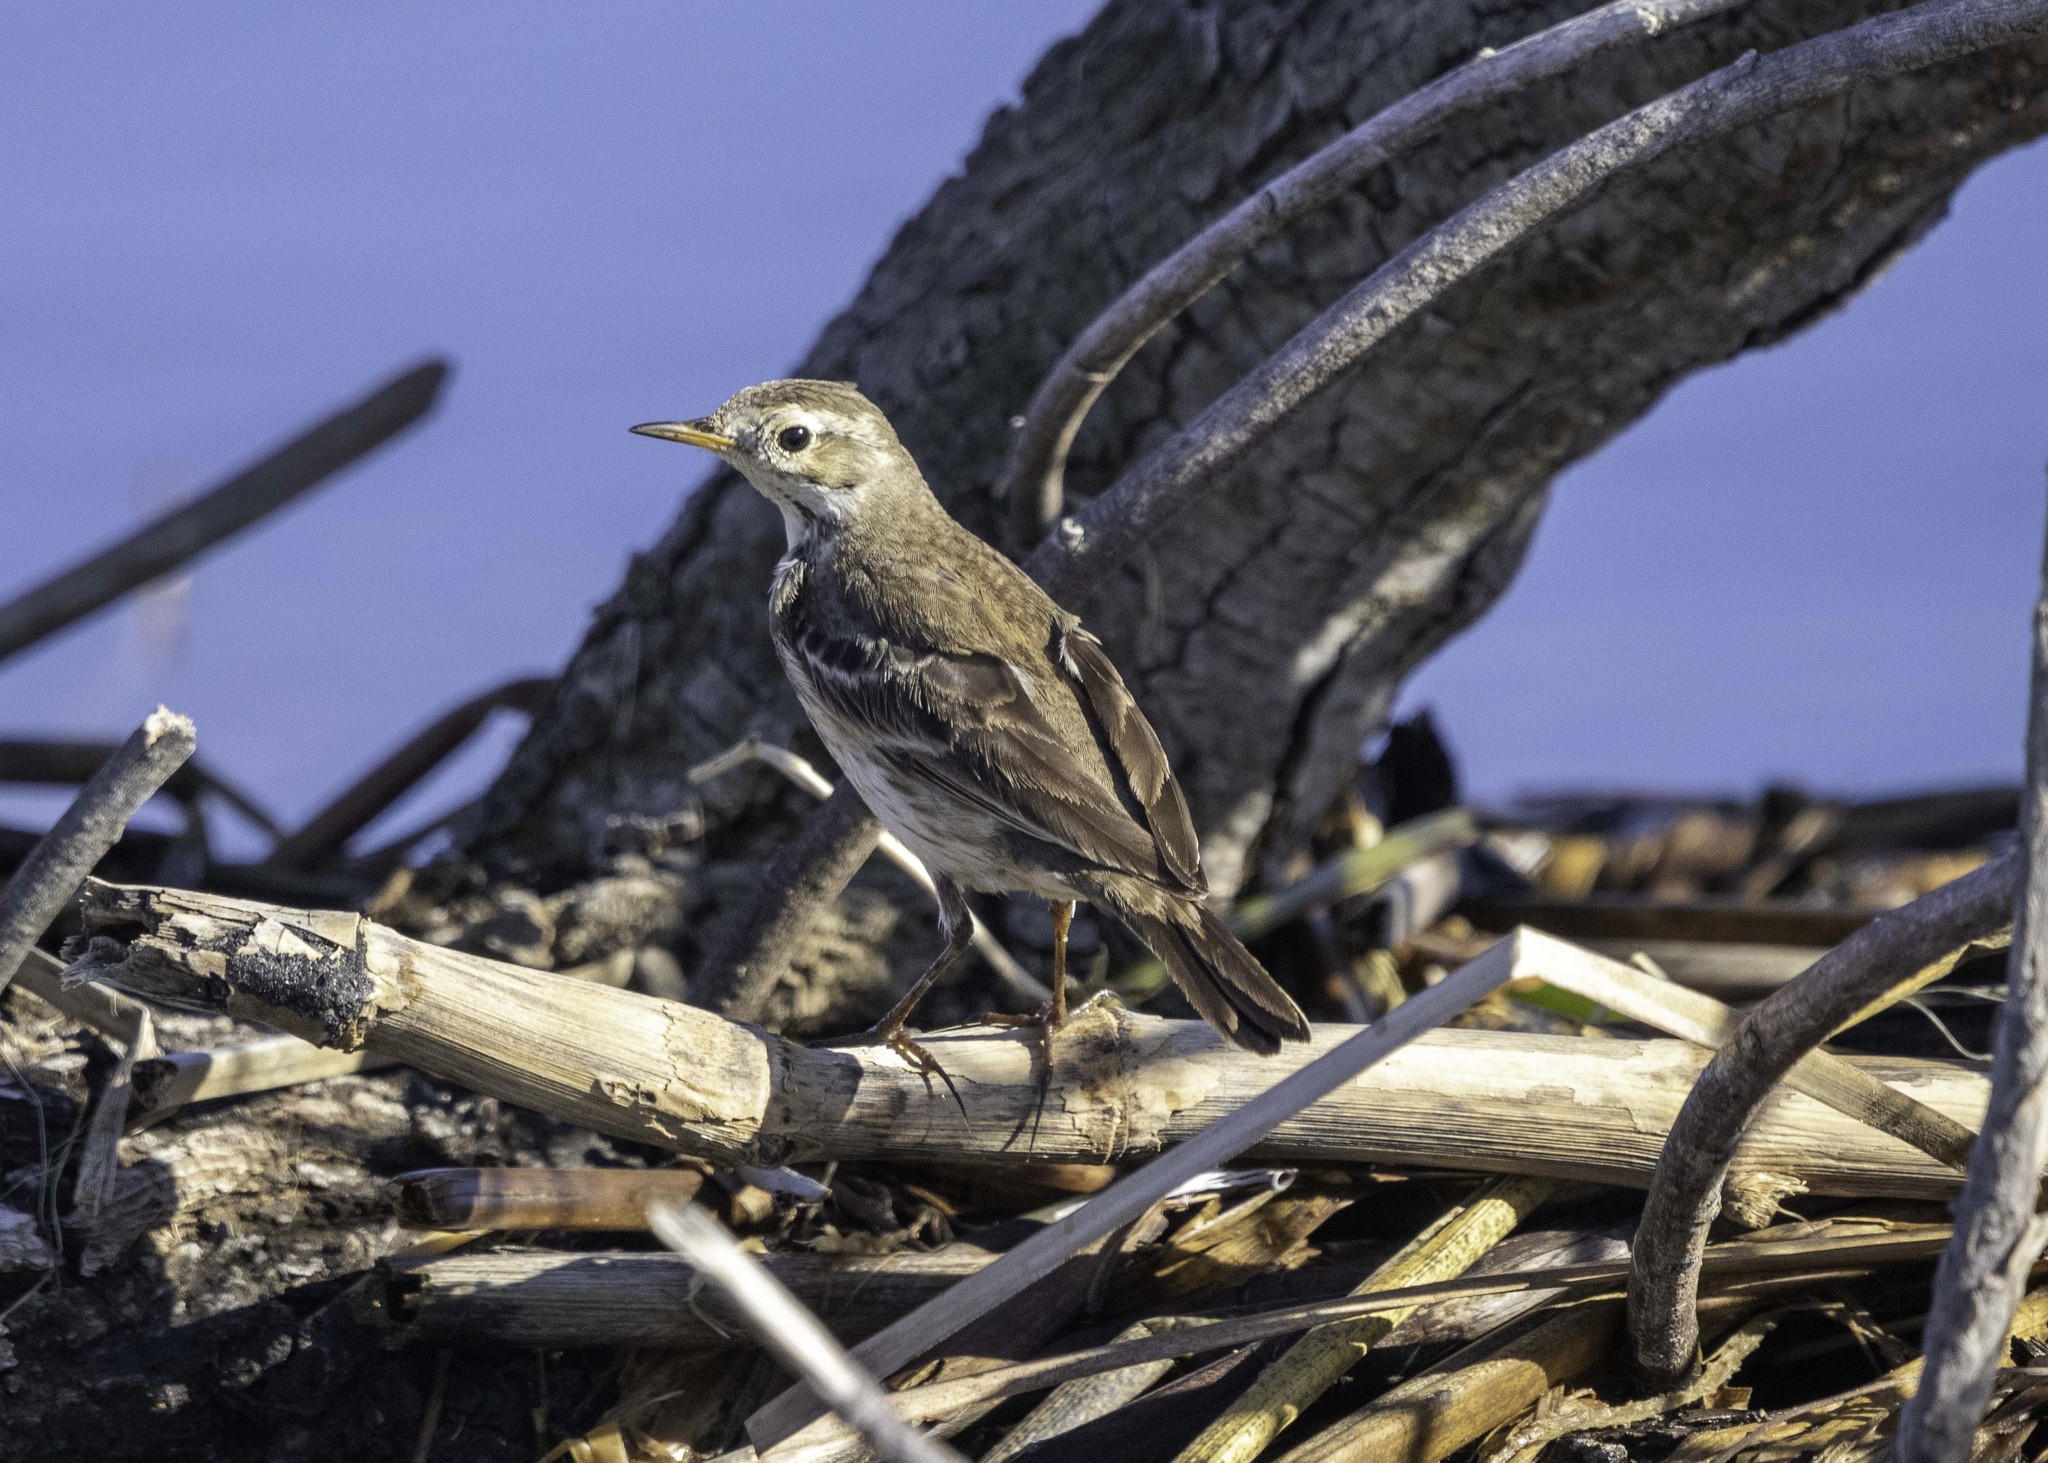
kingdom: Animalia
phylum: Chordata
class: Aves
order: Passeriformes
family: Motacillidae
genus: Anthus
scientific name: Anthus rubescens
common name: Buff-bellied pipit
